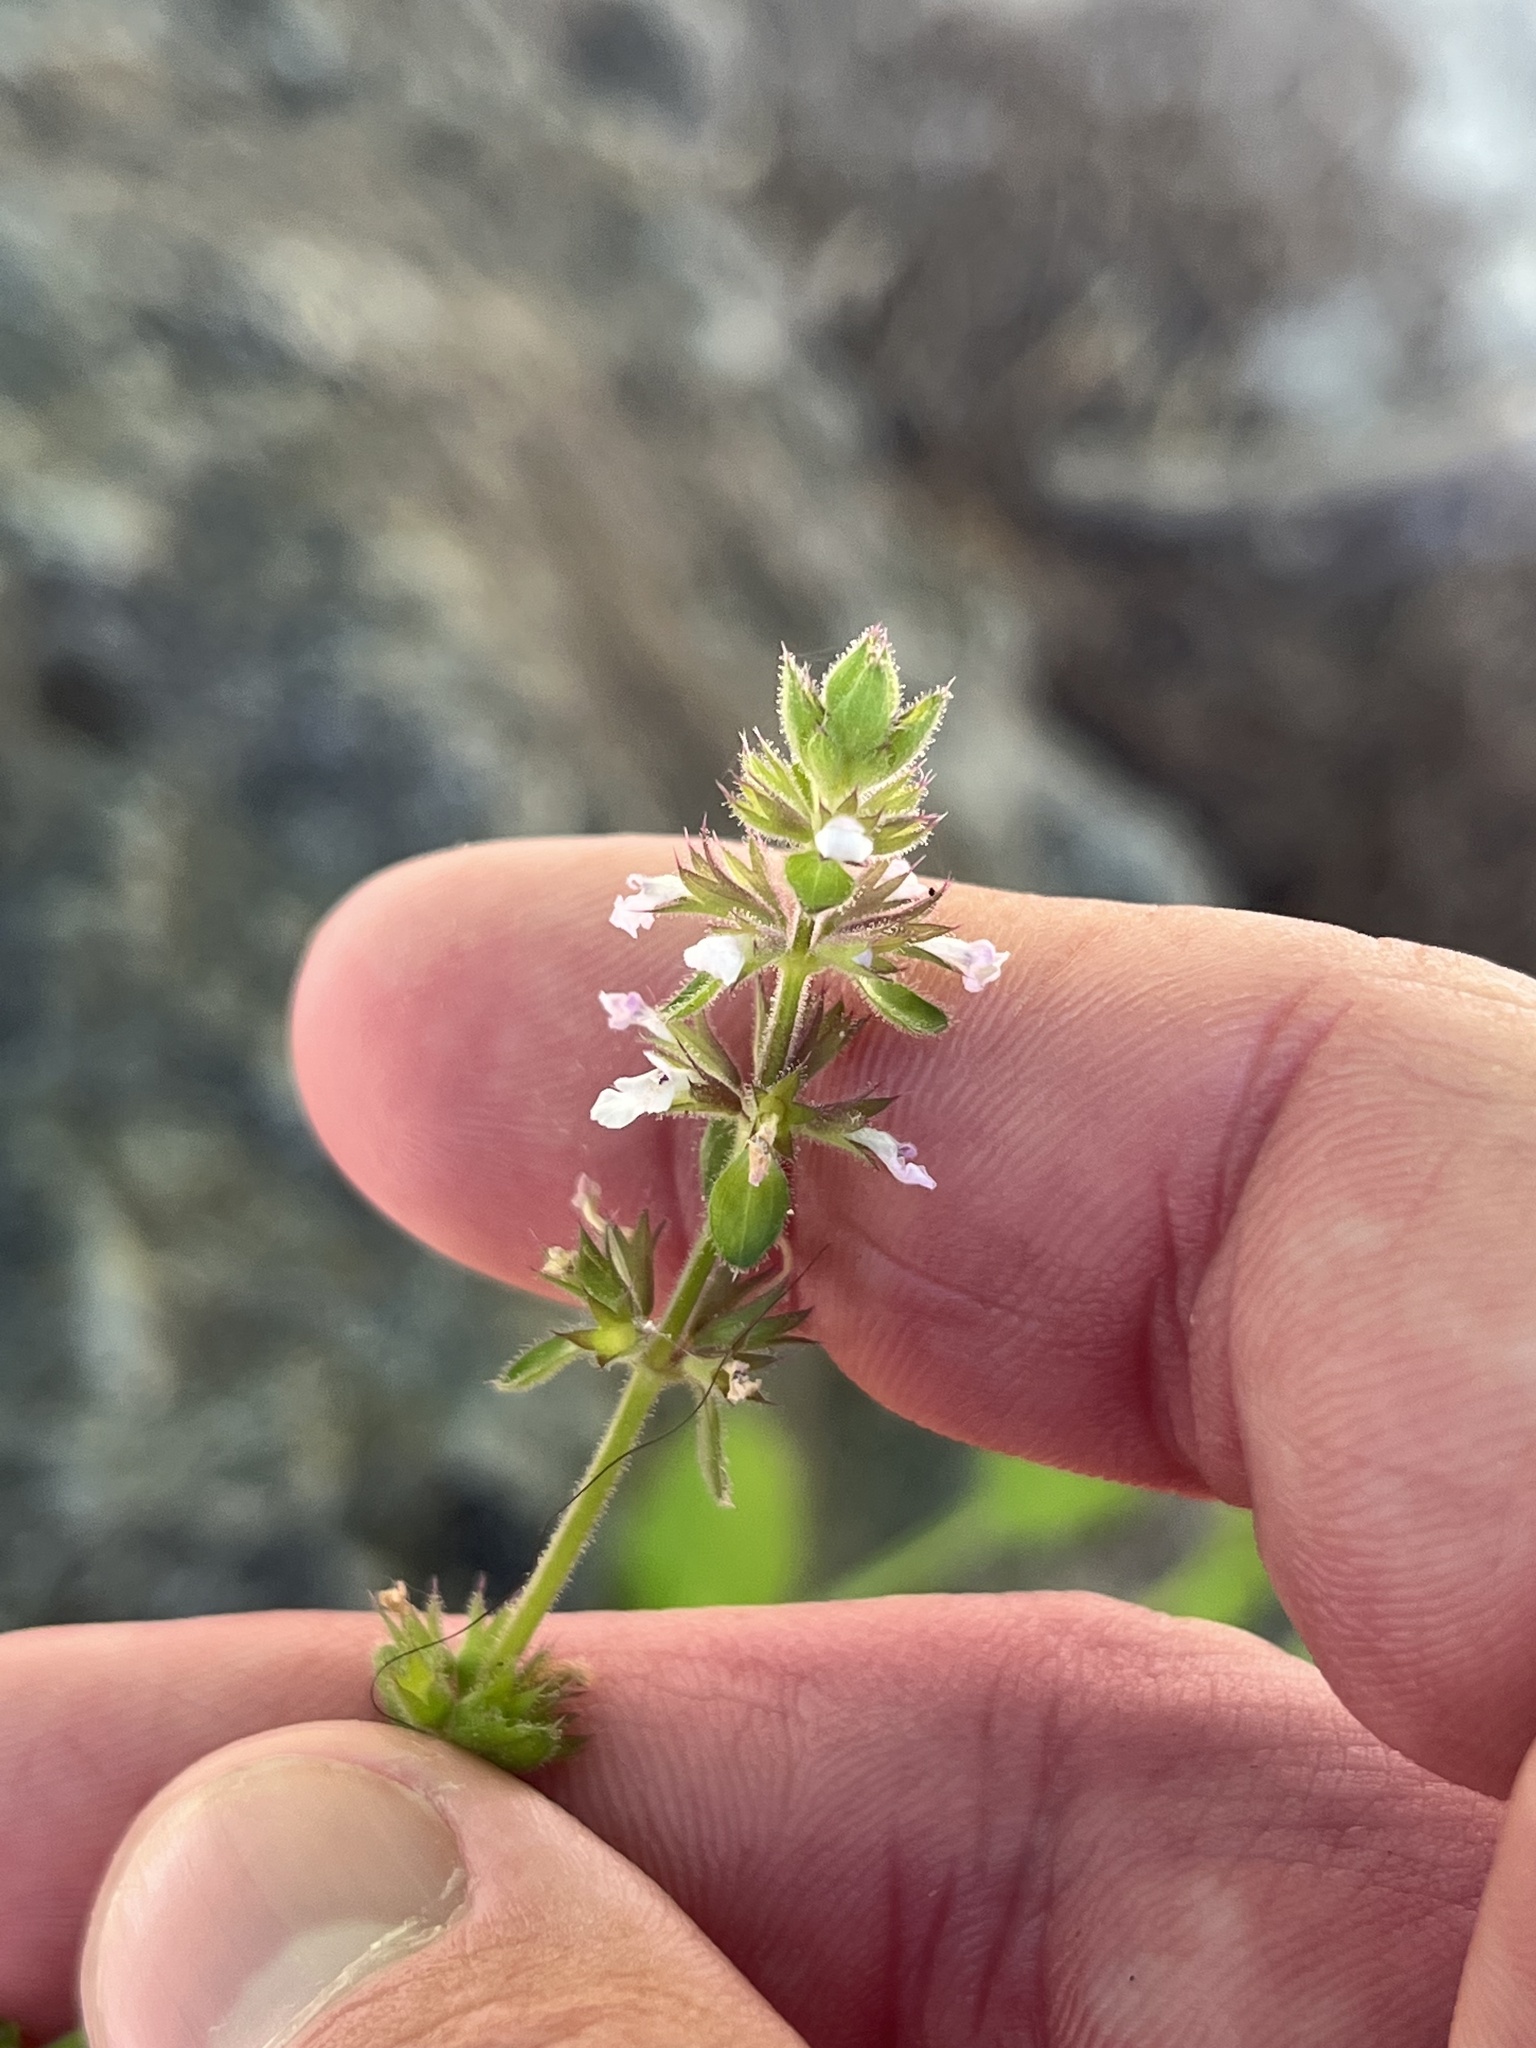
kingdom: Plantae
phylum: Tracheophyta
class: Magnoliopsida
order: Lamiales
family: Lamiaceae
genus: Stachys
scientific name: Stachys
